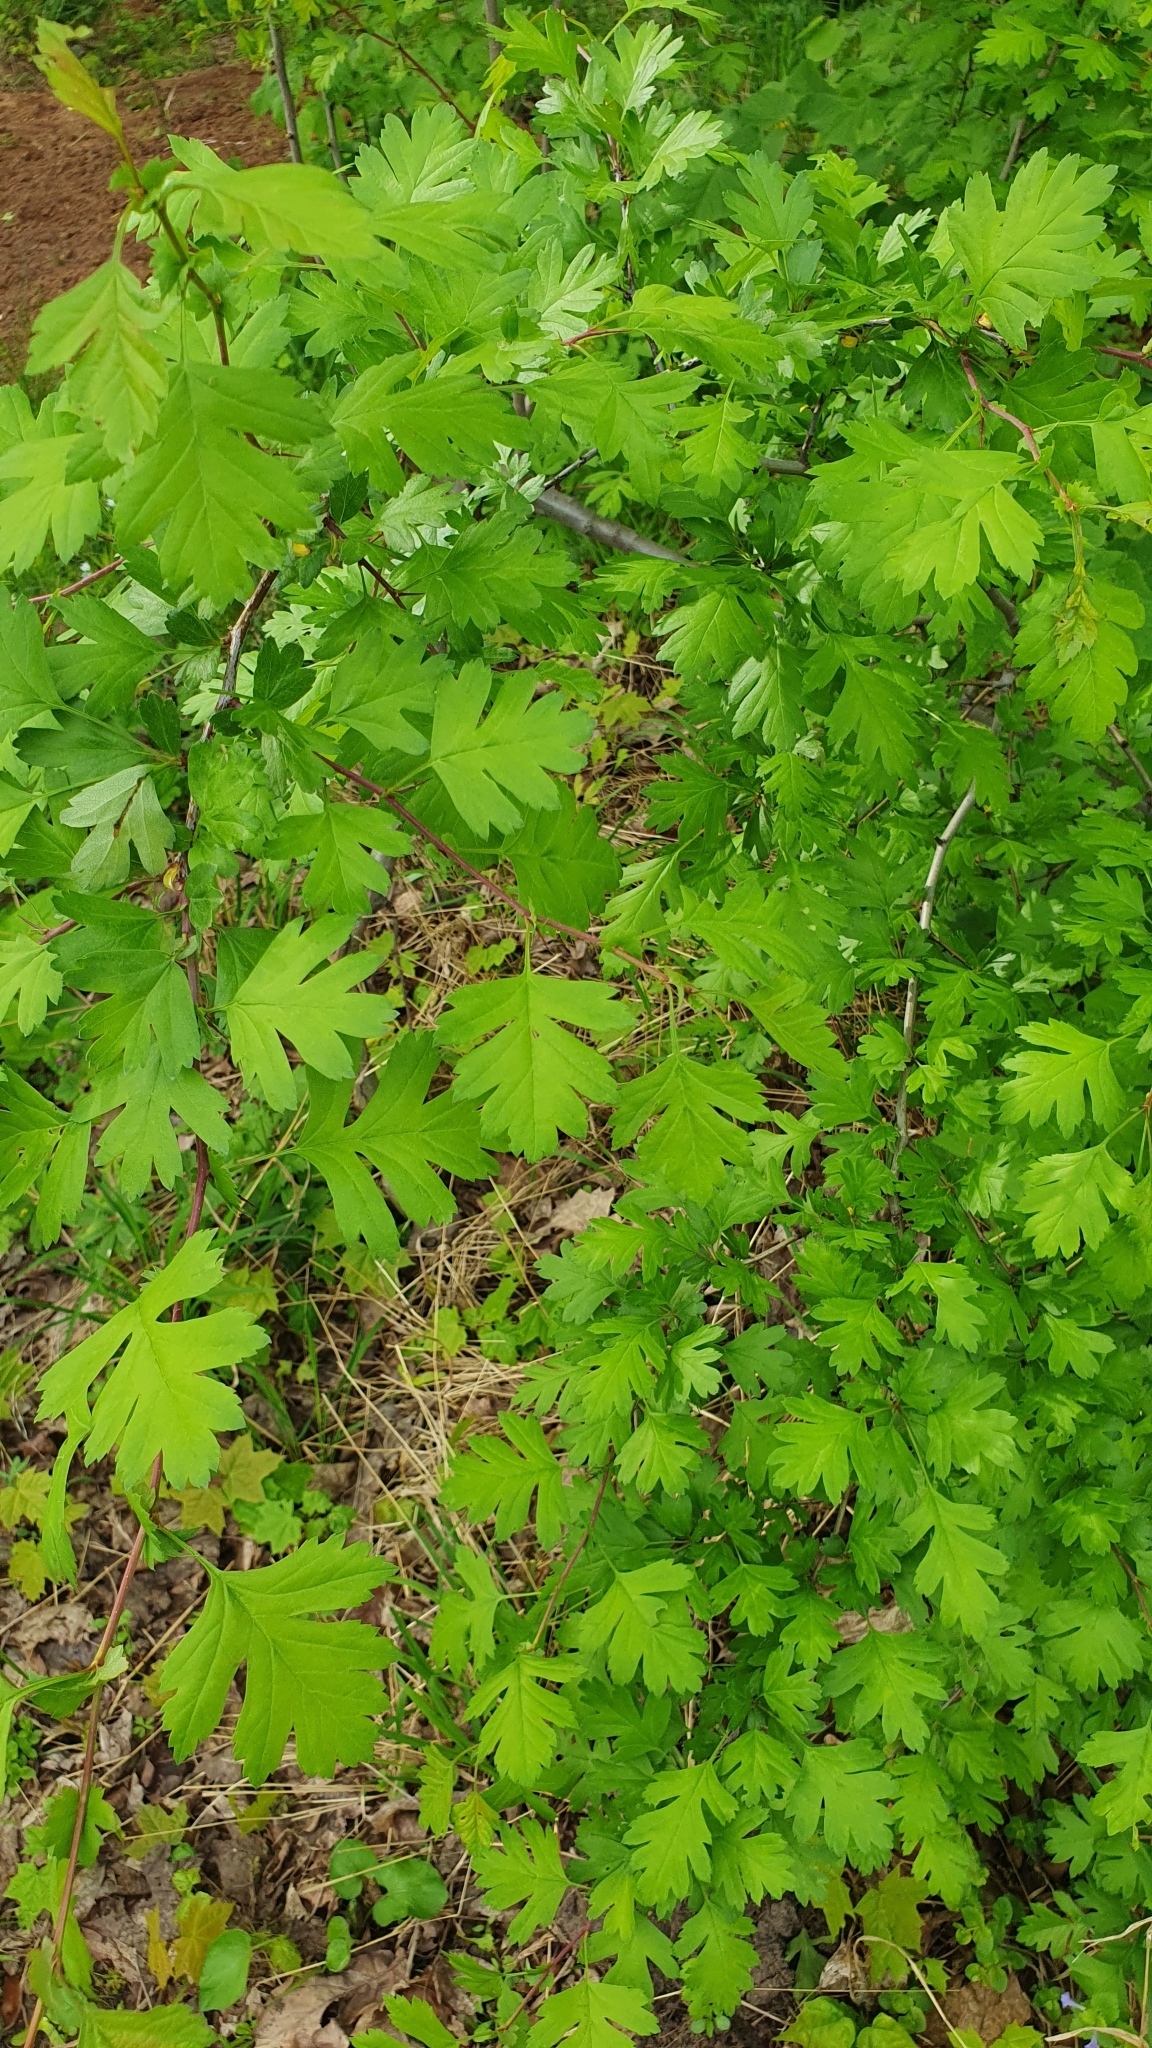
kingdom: Plantae
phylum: Tracheophyta
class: Magnoliopsida
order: Rosales
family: Rosaceae
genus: Crataegus
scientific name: Crataegus monogyna
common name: Hawthorn
